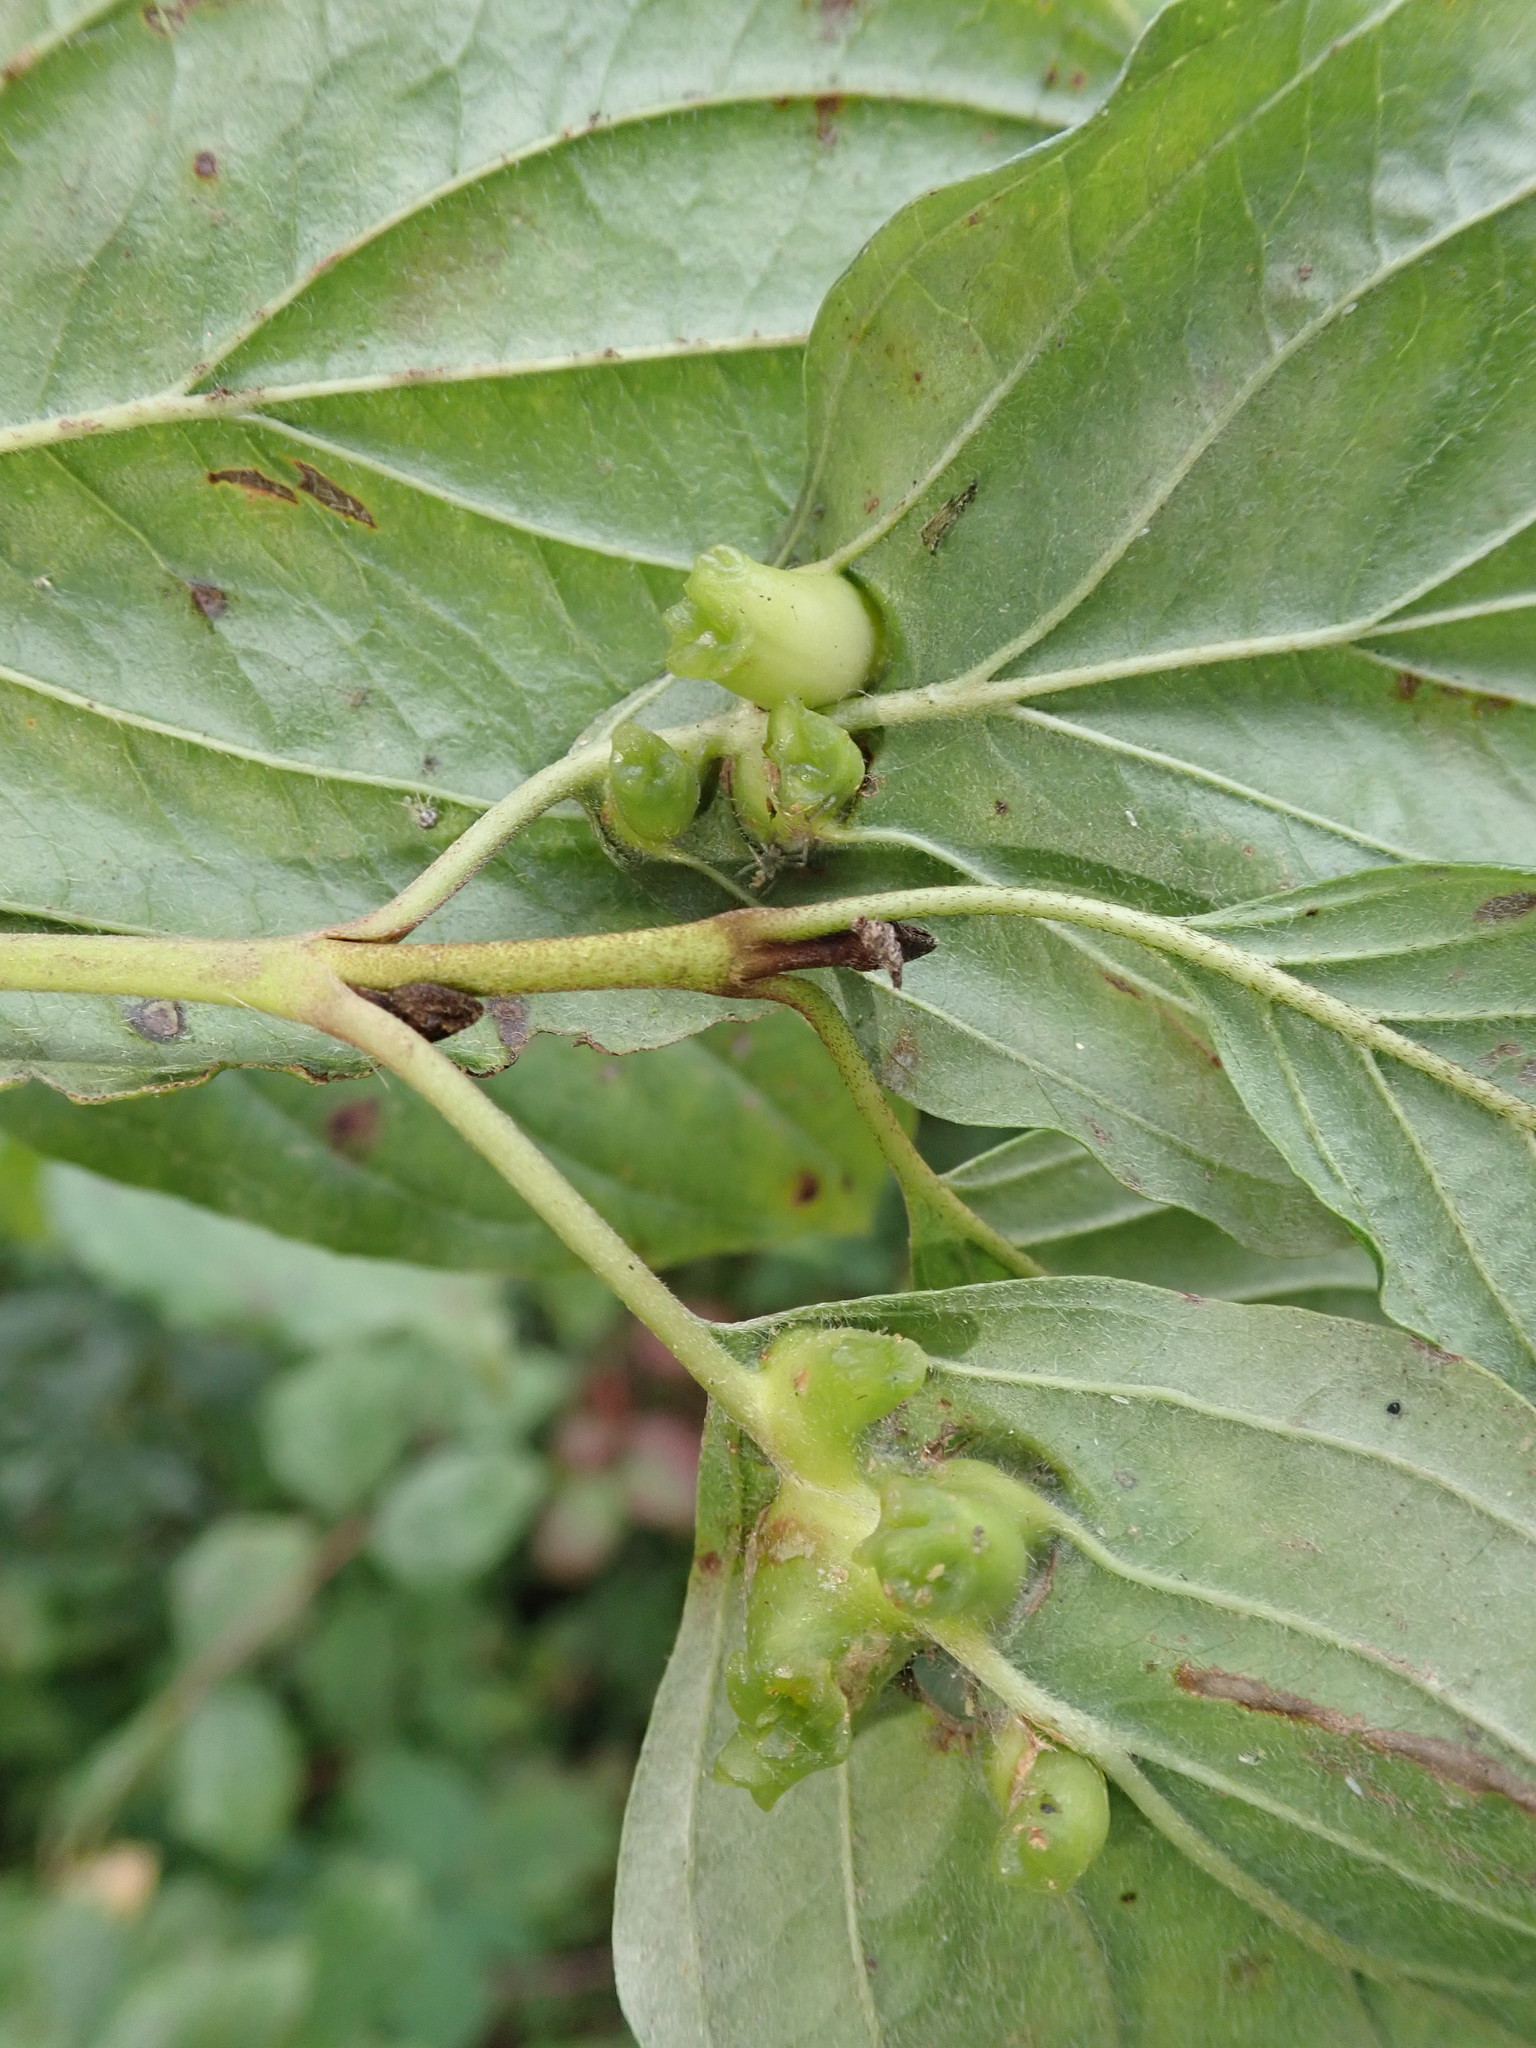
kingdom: Animalia
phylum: Arthropoda
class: Insecta
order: Diptera
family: Cecidomyiidae
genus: Craneiobia
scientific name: Craneiobia corni
